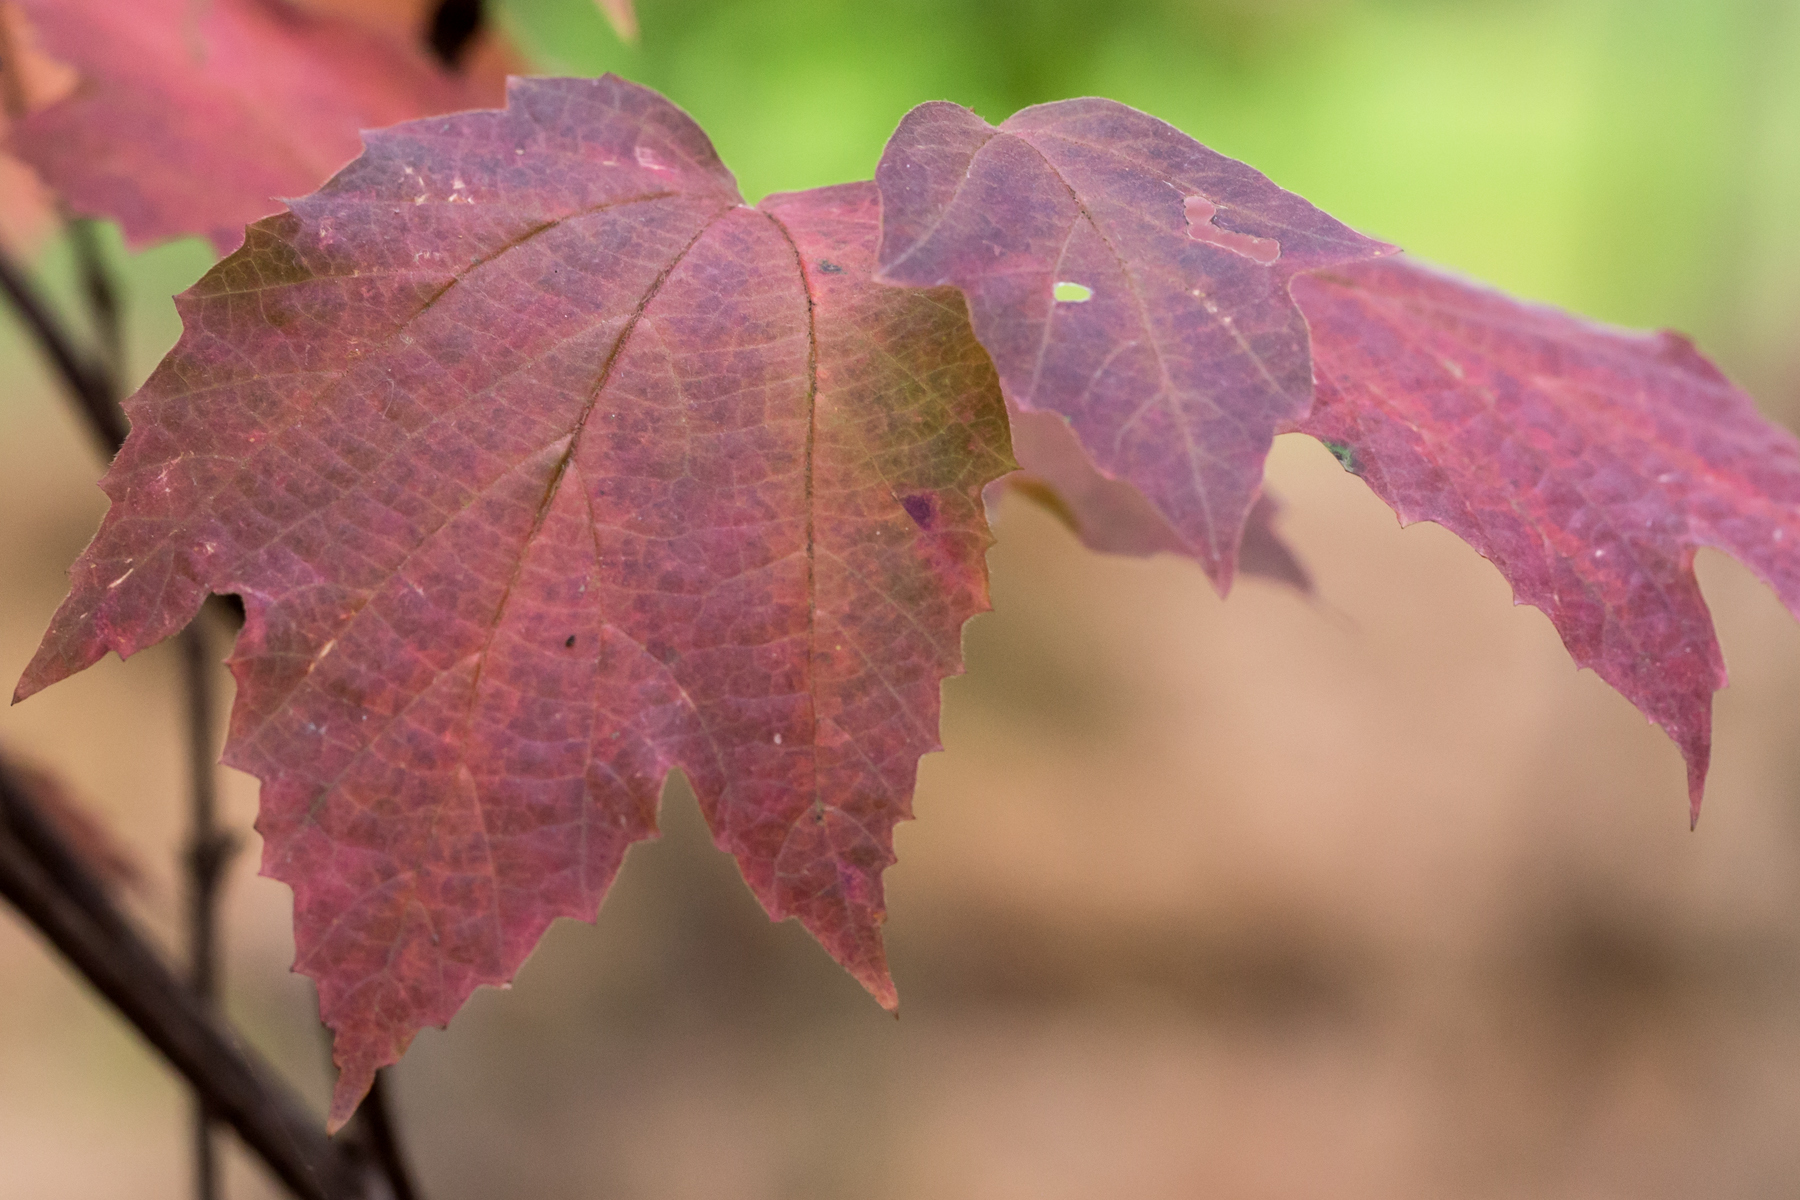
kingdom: Plantae
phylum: Tracheophyta
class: Magnoliopsida
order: Dipsacales
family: Viburnaceae
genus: Viburnum
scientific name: Viburnum acerifolium
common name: Dockmackie
